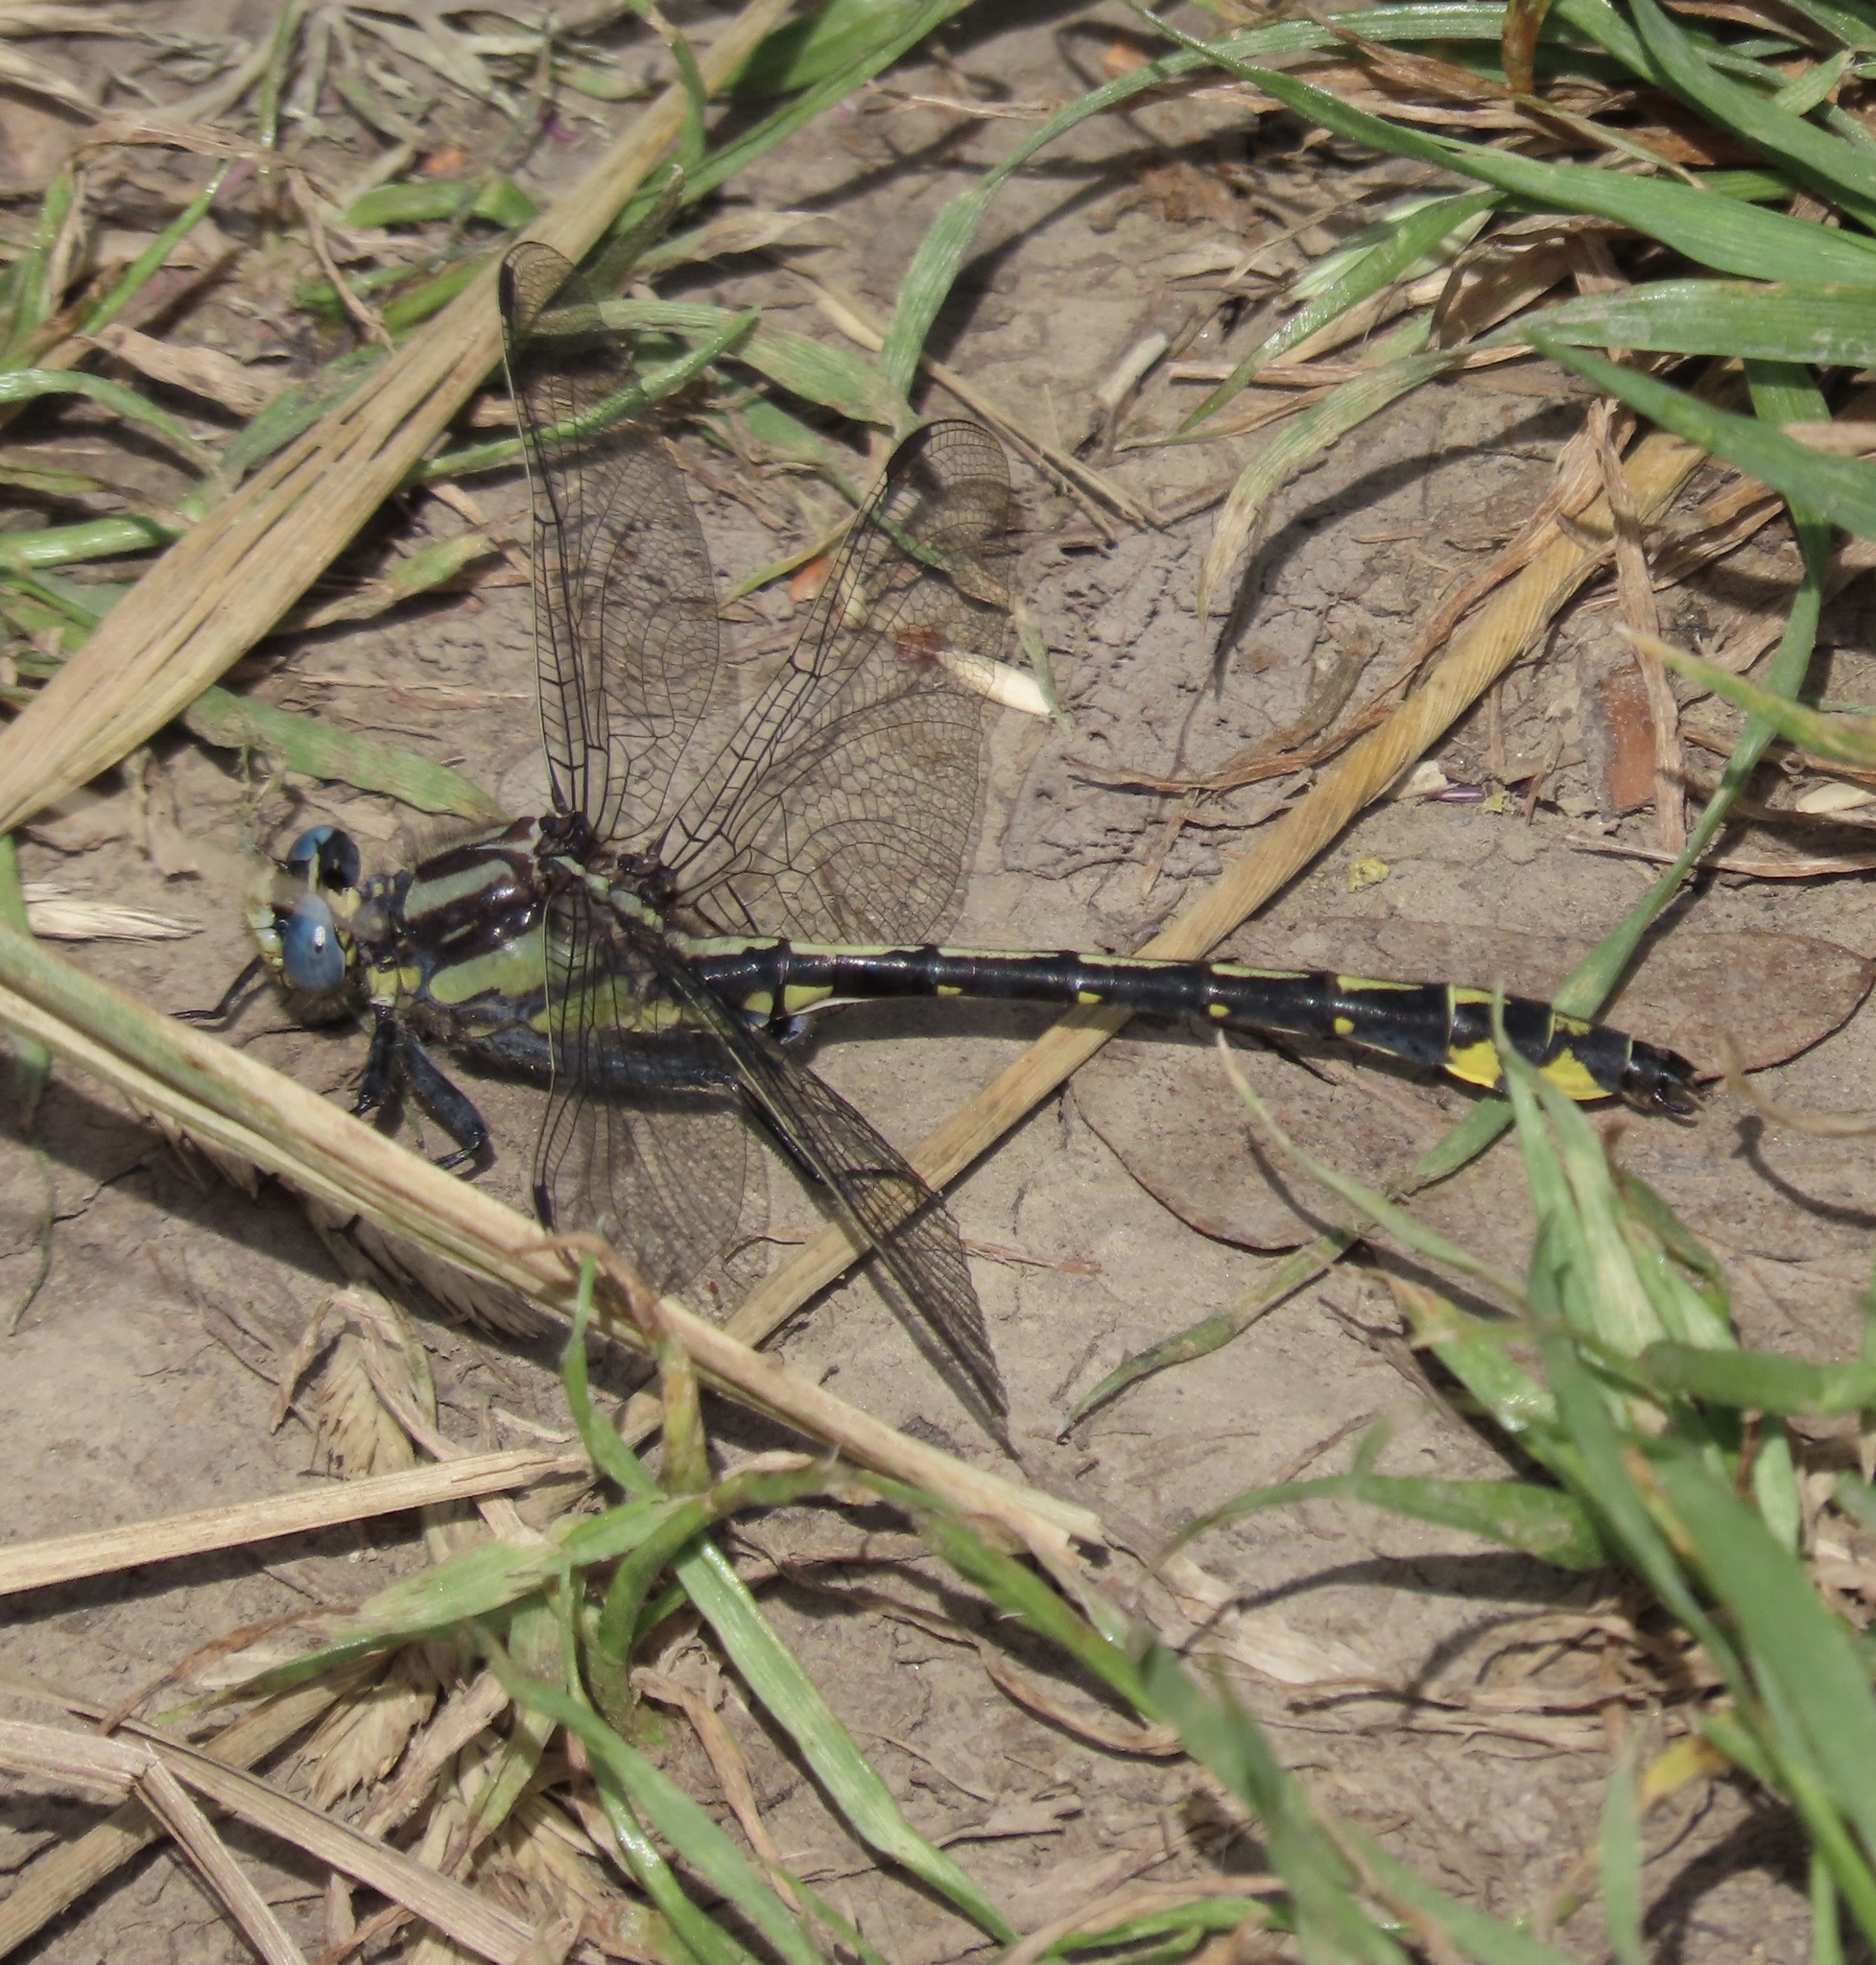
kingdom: Animalia
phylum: Arthropoda
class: Insecta
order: Odonata
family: Gomphidae
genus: Phanogomphus
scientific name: Phanogomphus kurilis
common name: Pacific clubtail
